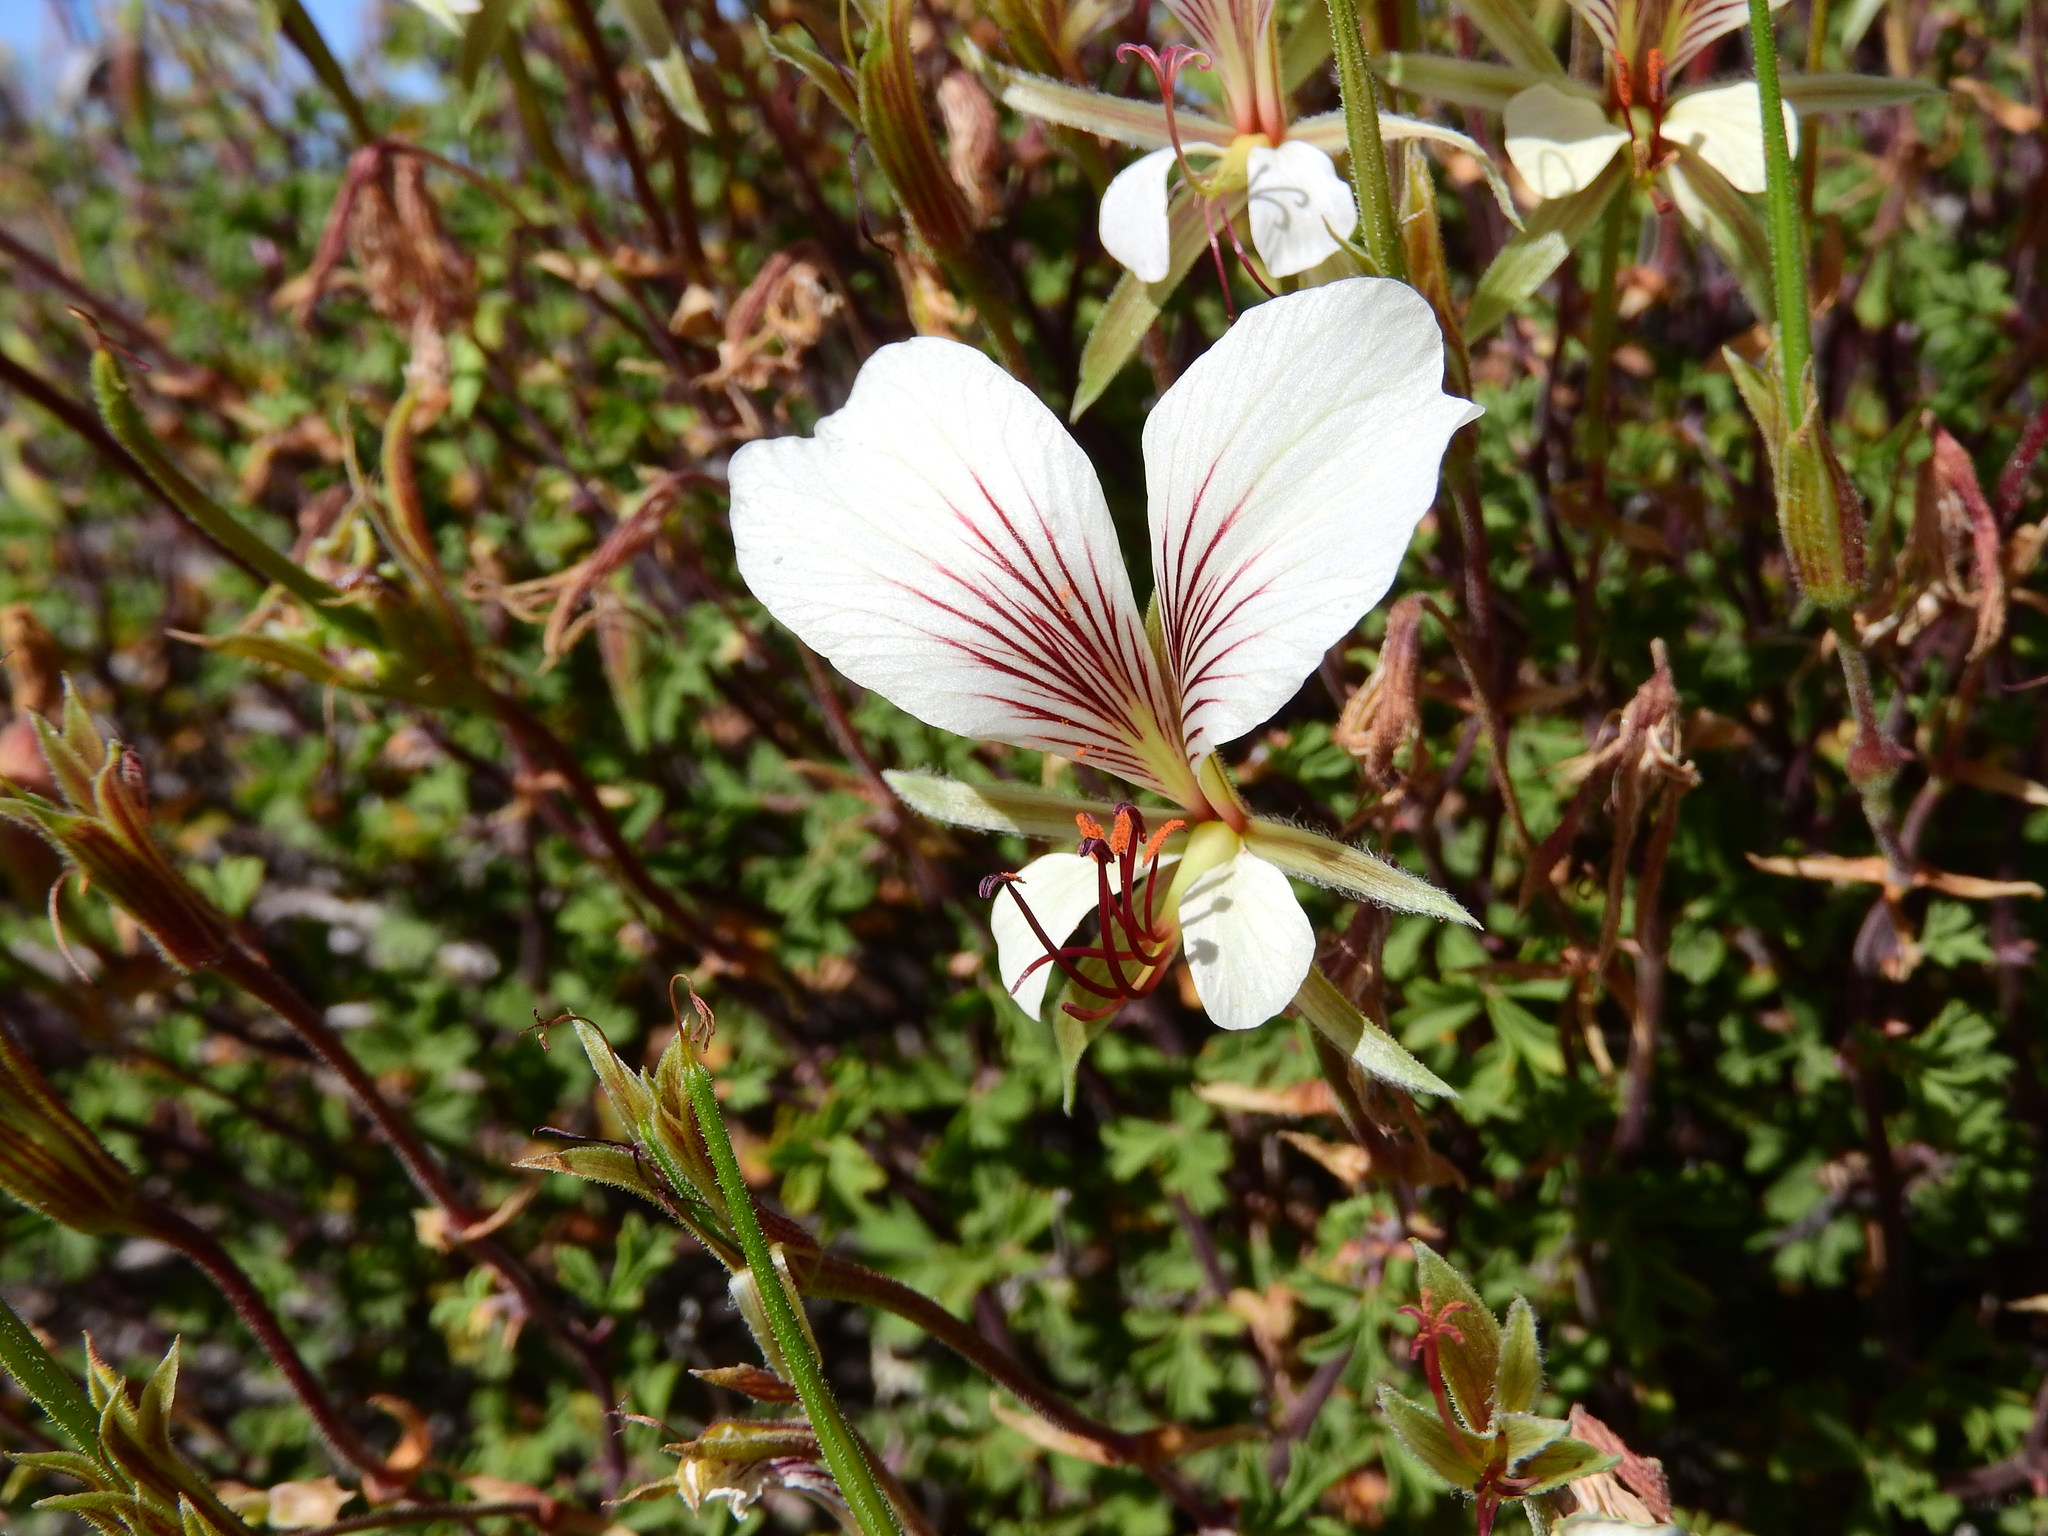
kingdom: Plantae
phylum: Tracheophyta
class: Magnoliopsida
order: Geraniales
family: Geraniaceae
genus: Pelargonium
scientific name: Pelargonium praemorsum
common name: Quinate-leaf pelargonium
